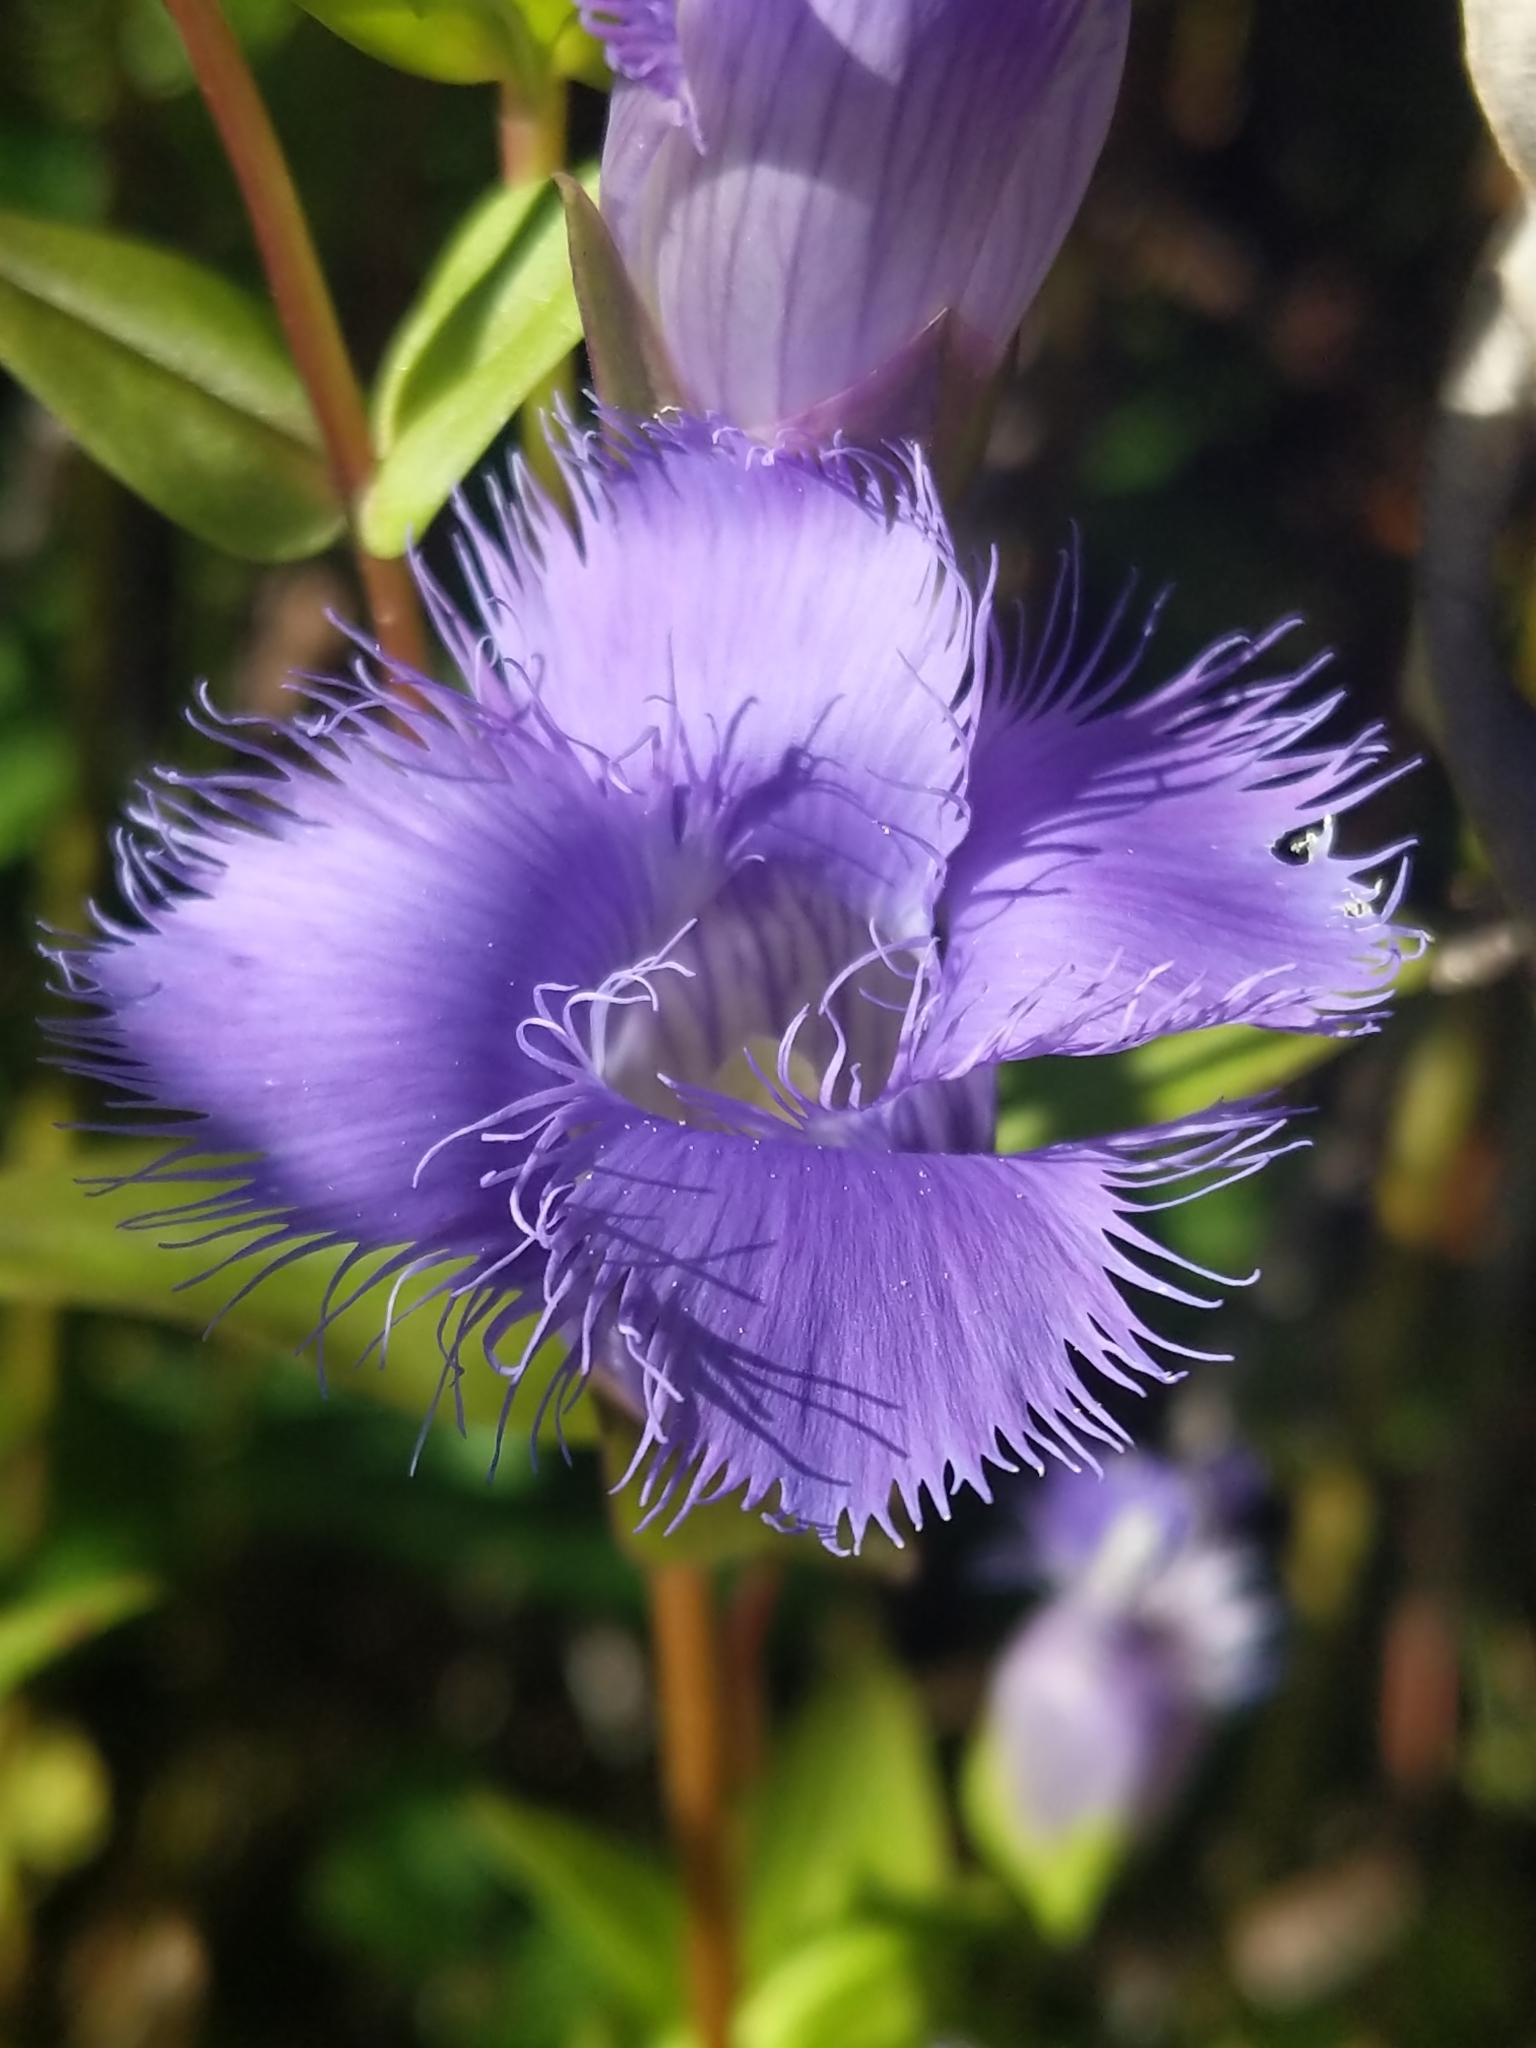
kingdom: Plantae
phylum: Tracheophyta
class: Magnoliopsida
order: Gentianales
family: Gentianaceae
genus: Gentianopsis
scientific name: Gentianopsis crinita
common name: Fringed-gentian
